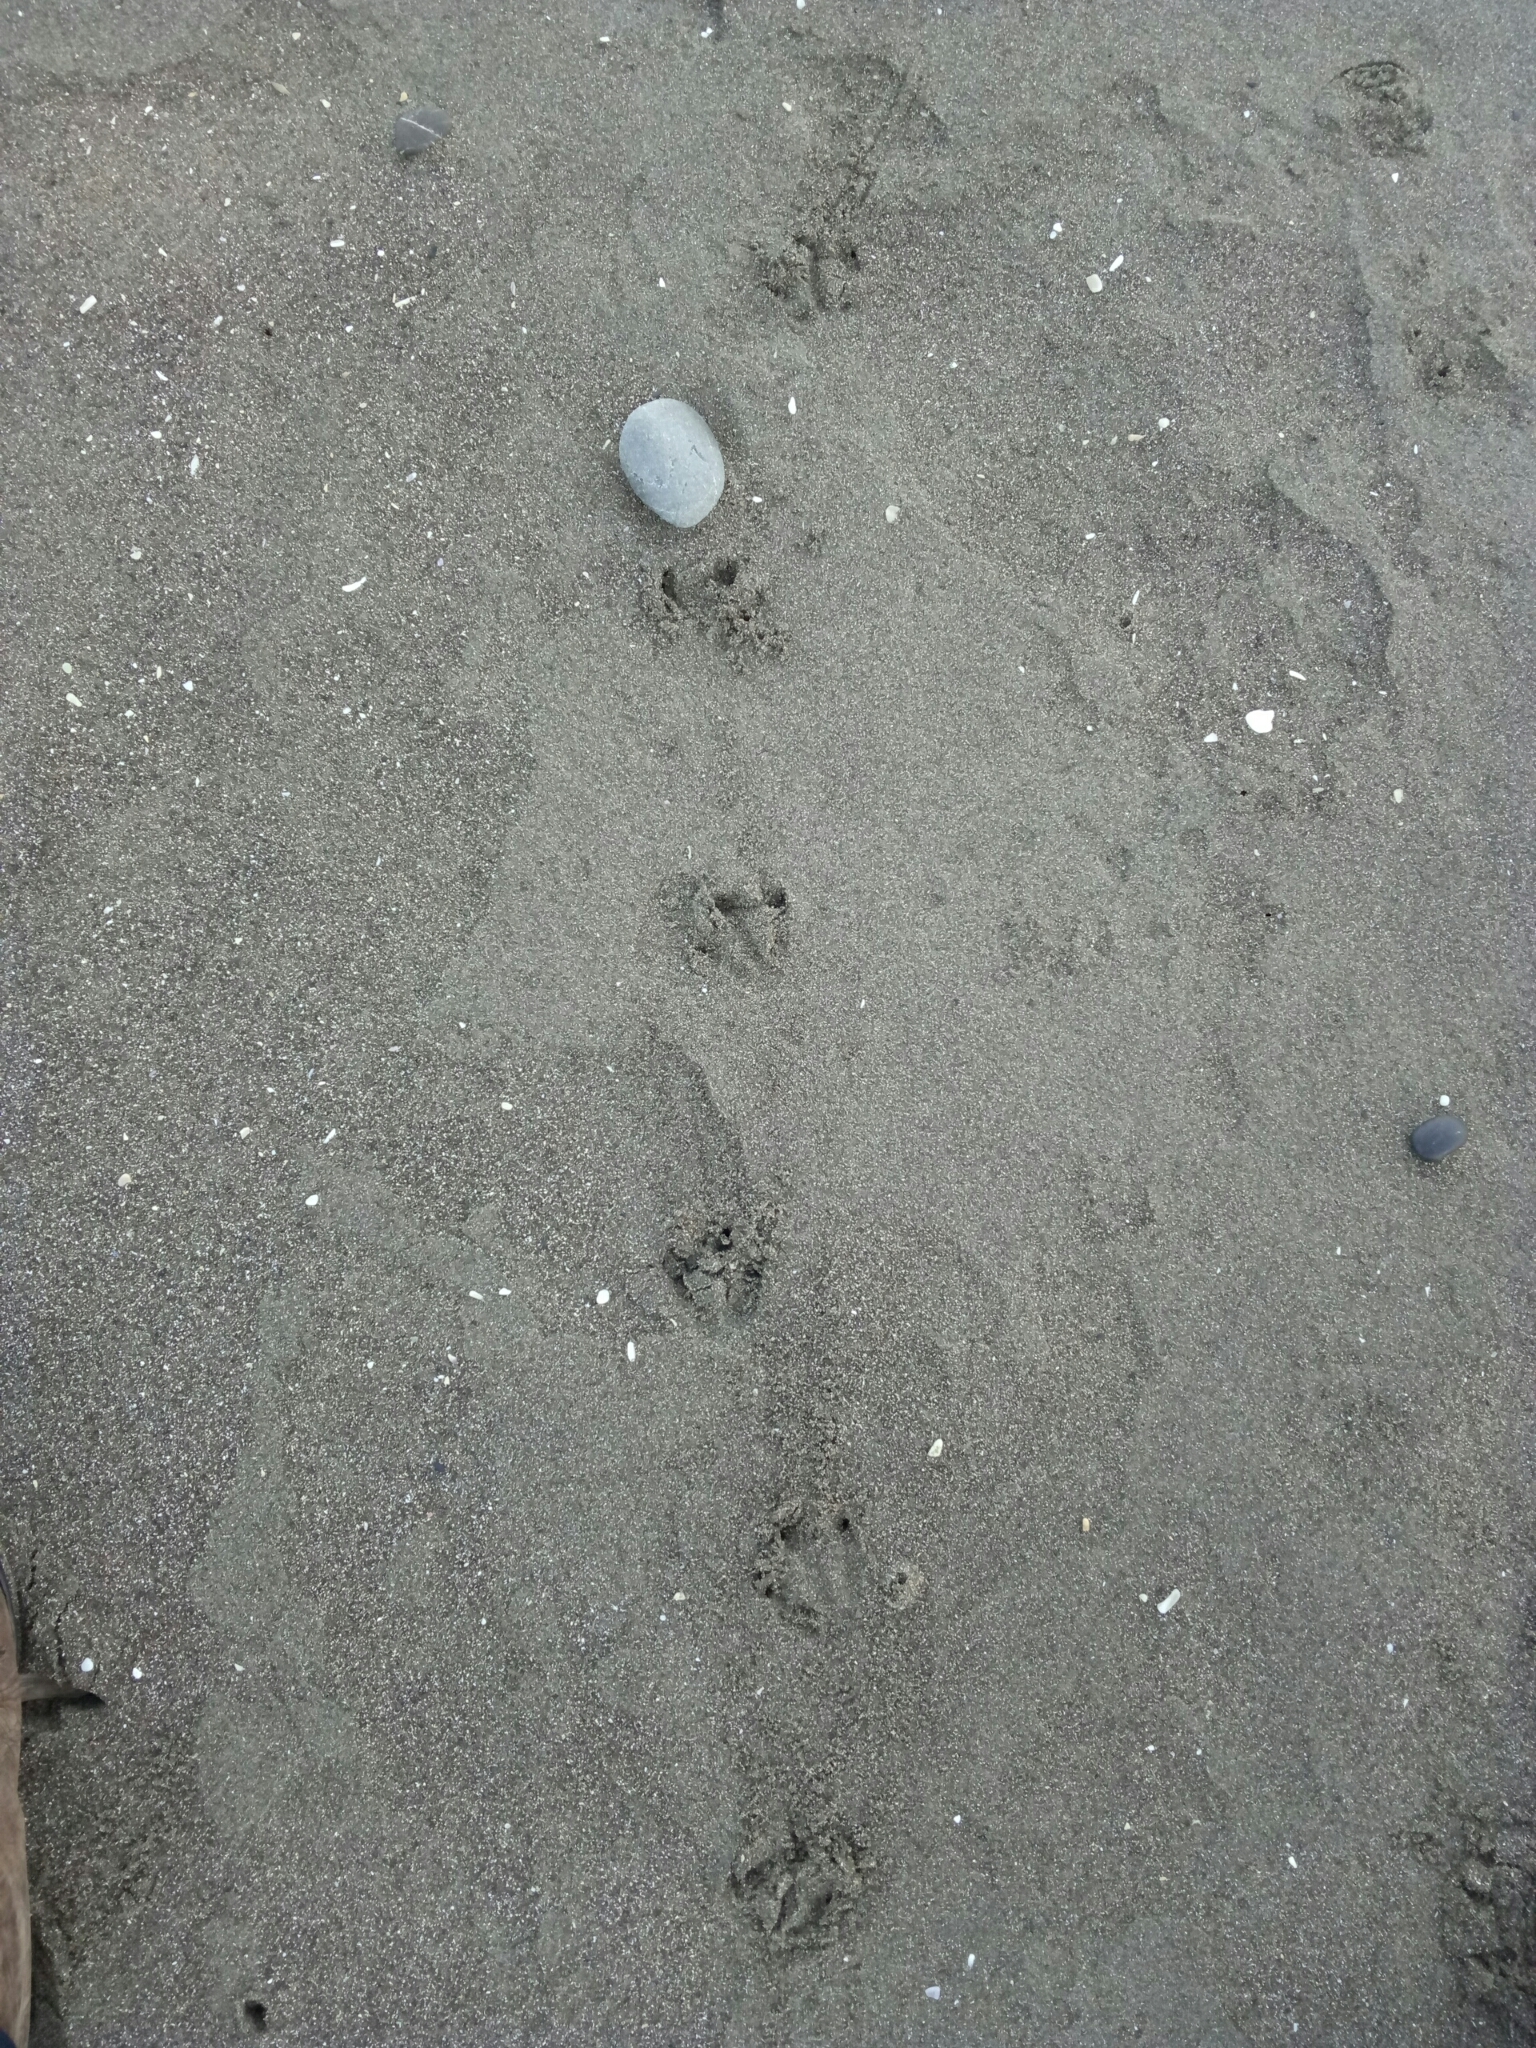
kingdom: Animalia
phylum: Chordata
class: Aves
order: Sphenisciformes
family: Spheniscidae
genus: Eudyptula
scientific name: Eudyptula minor
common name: Little penguin
